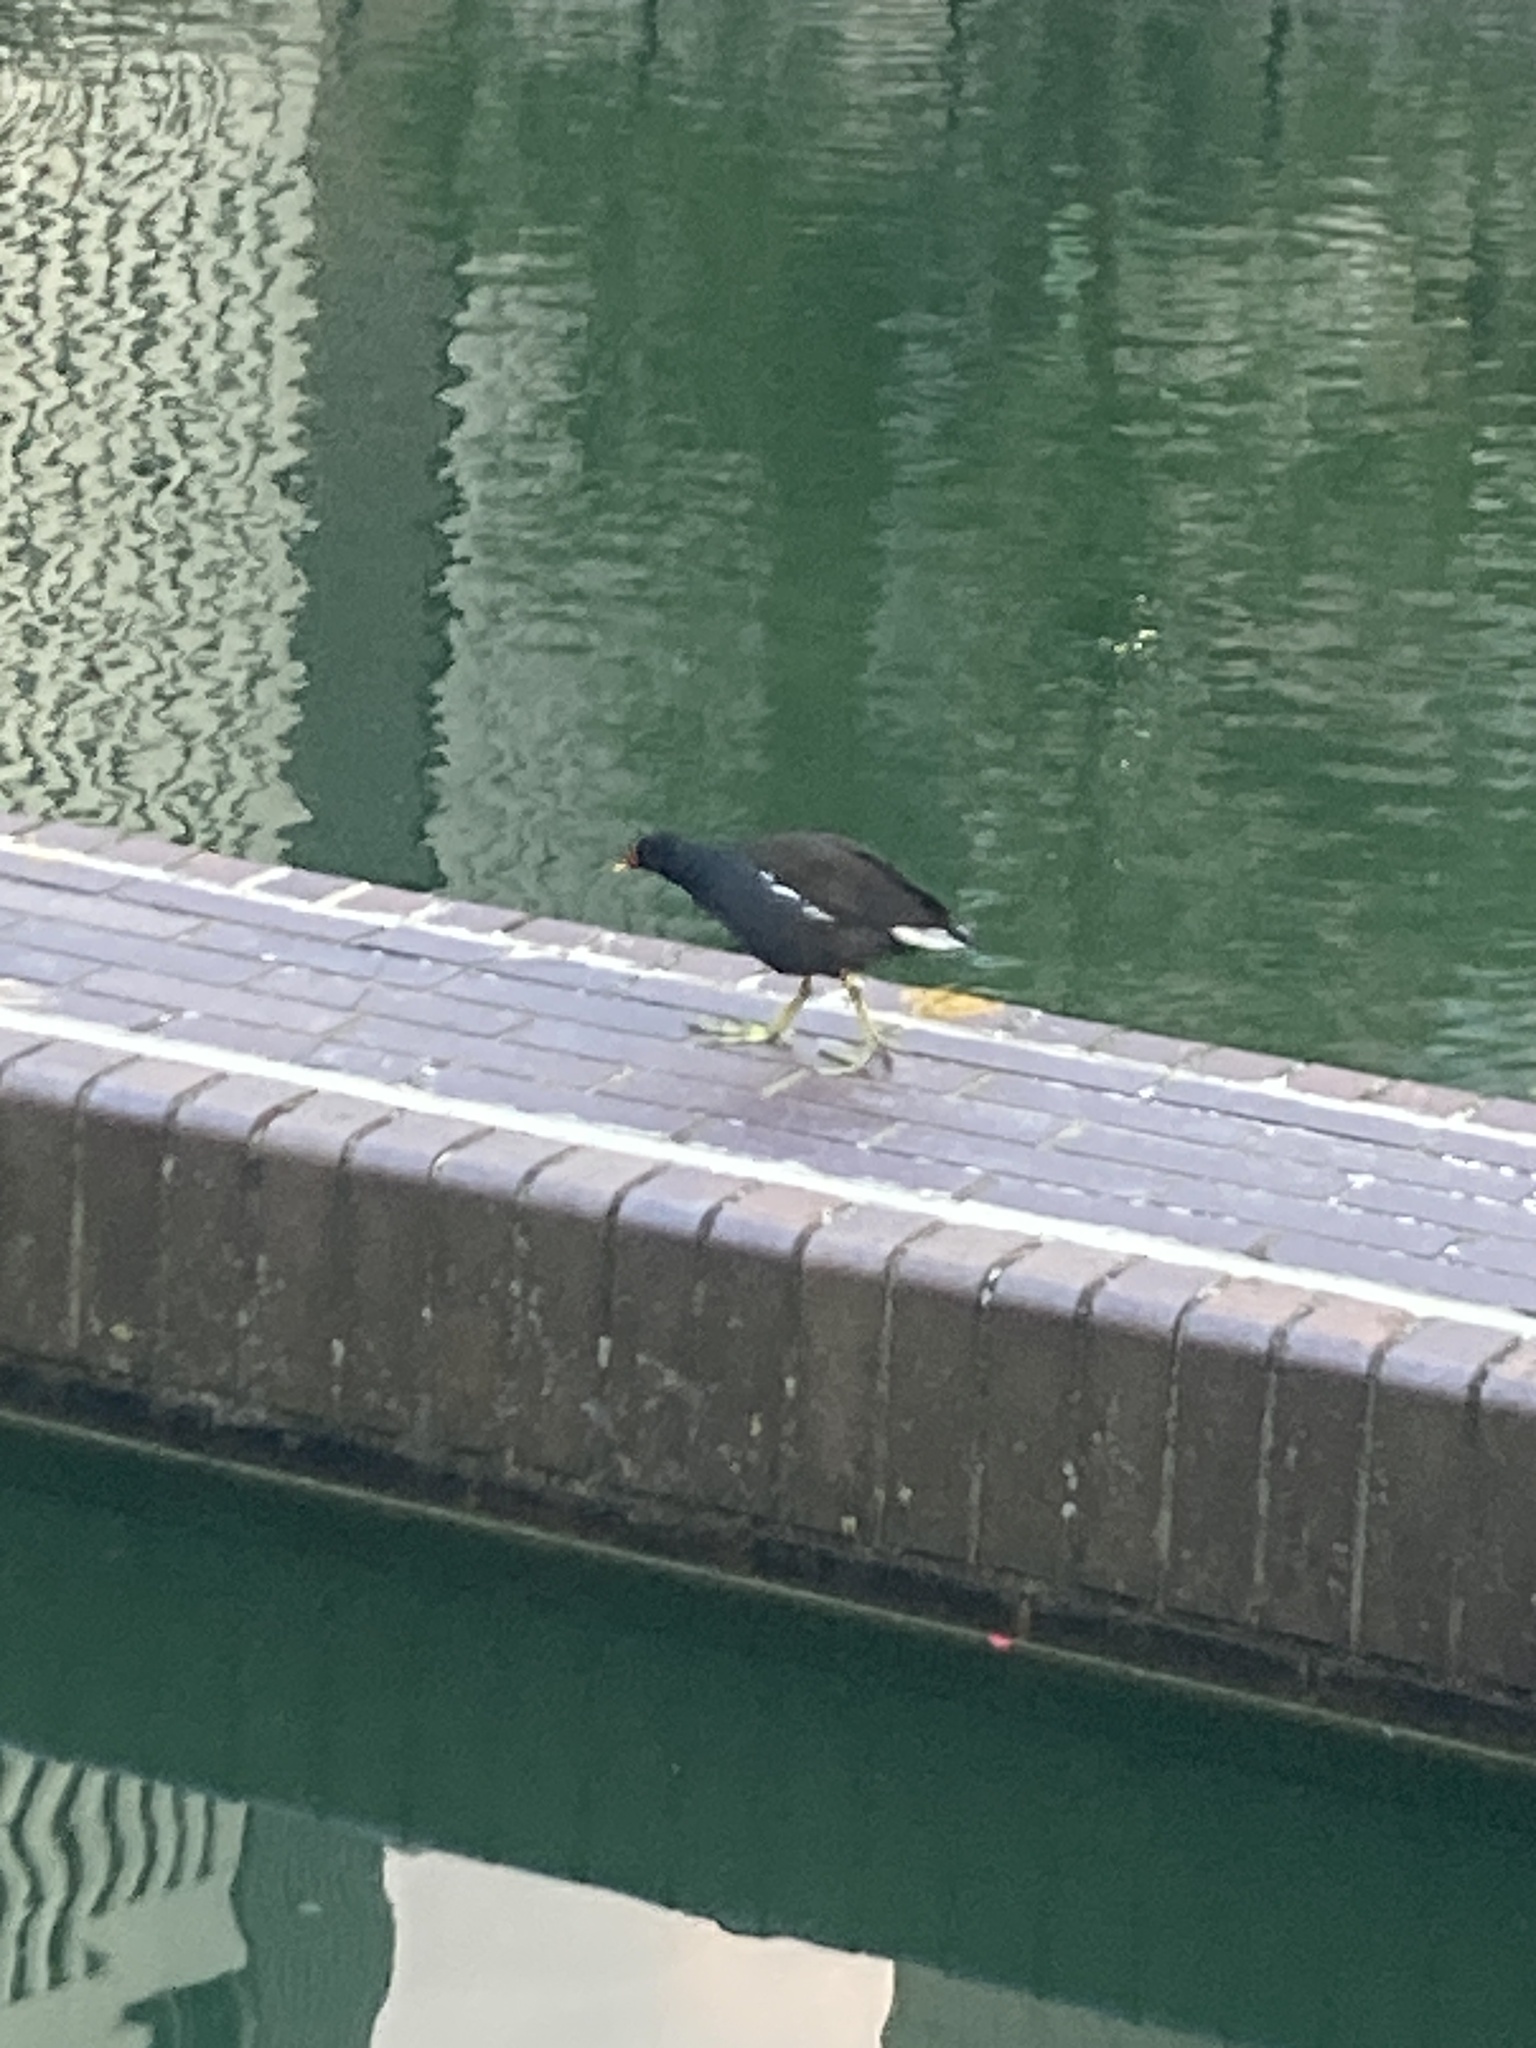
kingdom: Animalia
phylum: Chordata
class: Aves
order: Gruiformes
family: Rallidae
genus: Gallinula
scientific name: Gallinula chloropus
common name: Common moorhen
